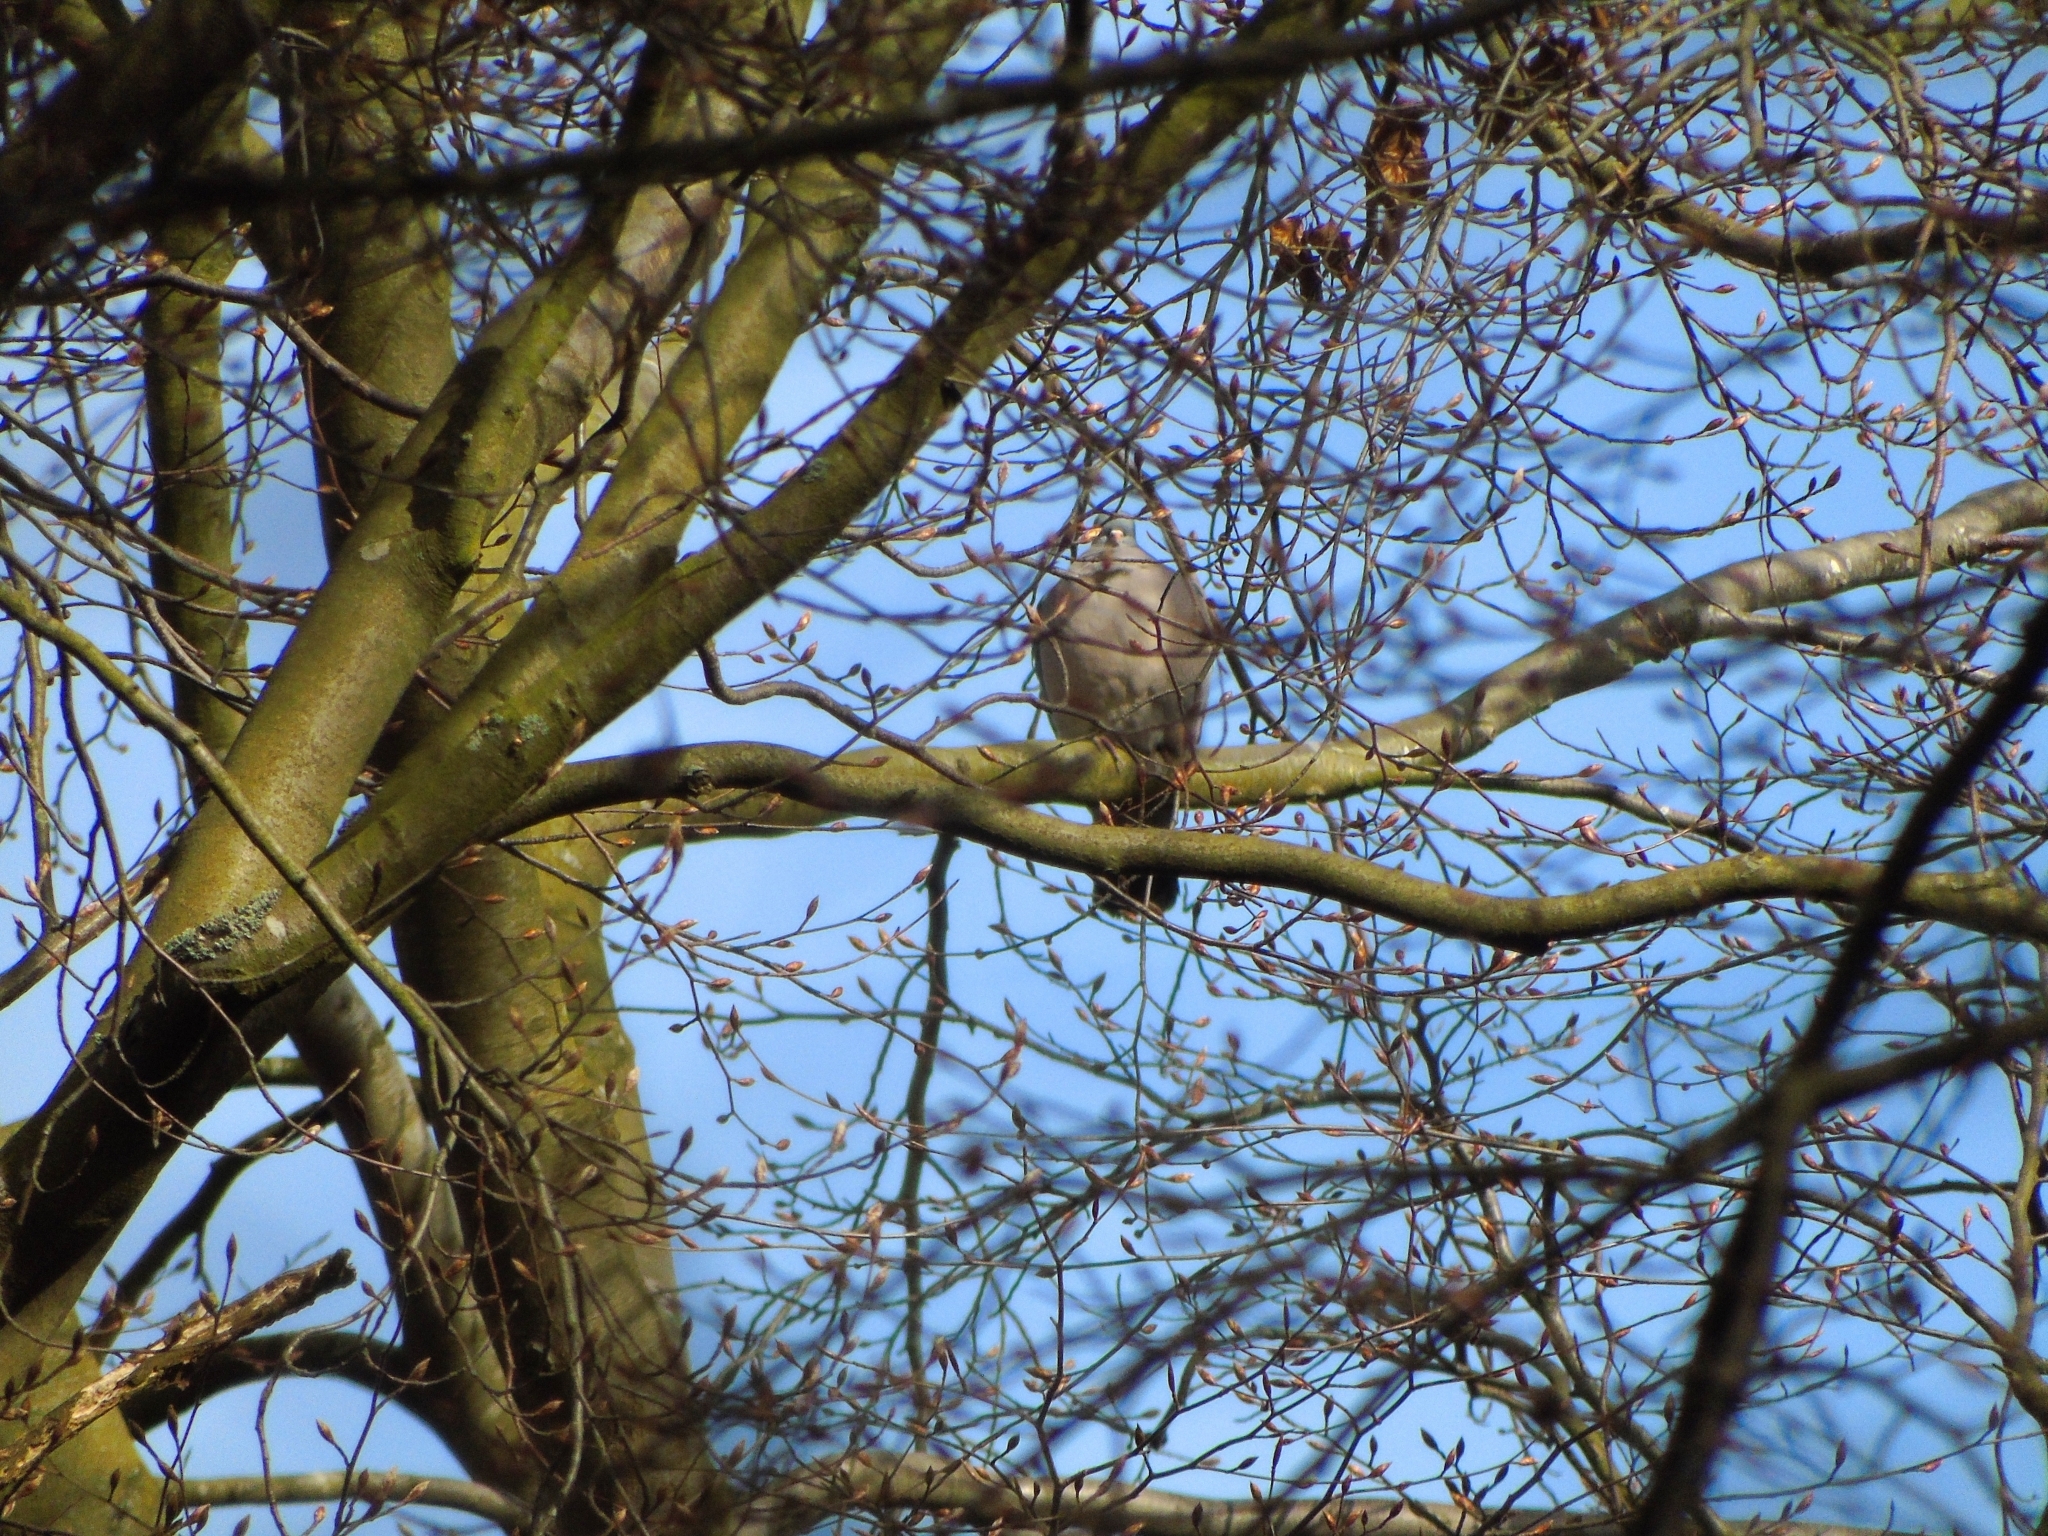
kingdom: Animalia
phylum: Chordata
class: Aves
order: Columbiformes
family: Columbidae
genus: Columba
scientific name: Columba palumbus
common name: Common wood pigeon
